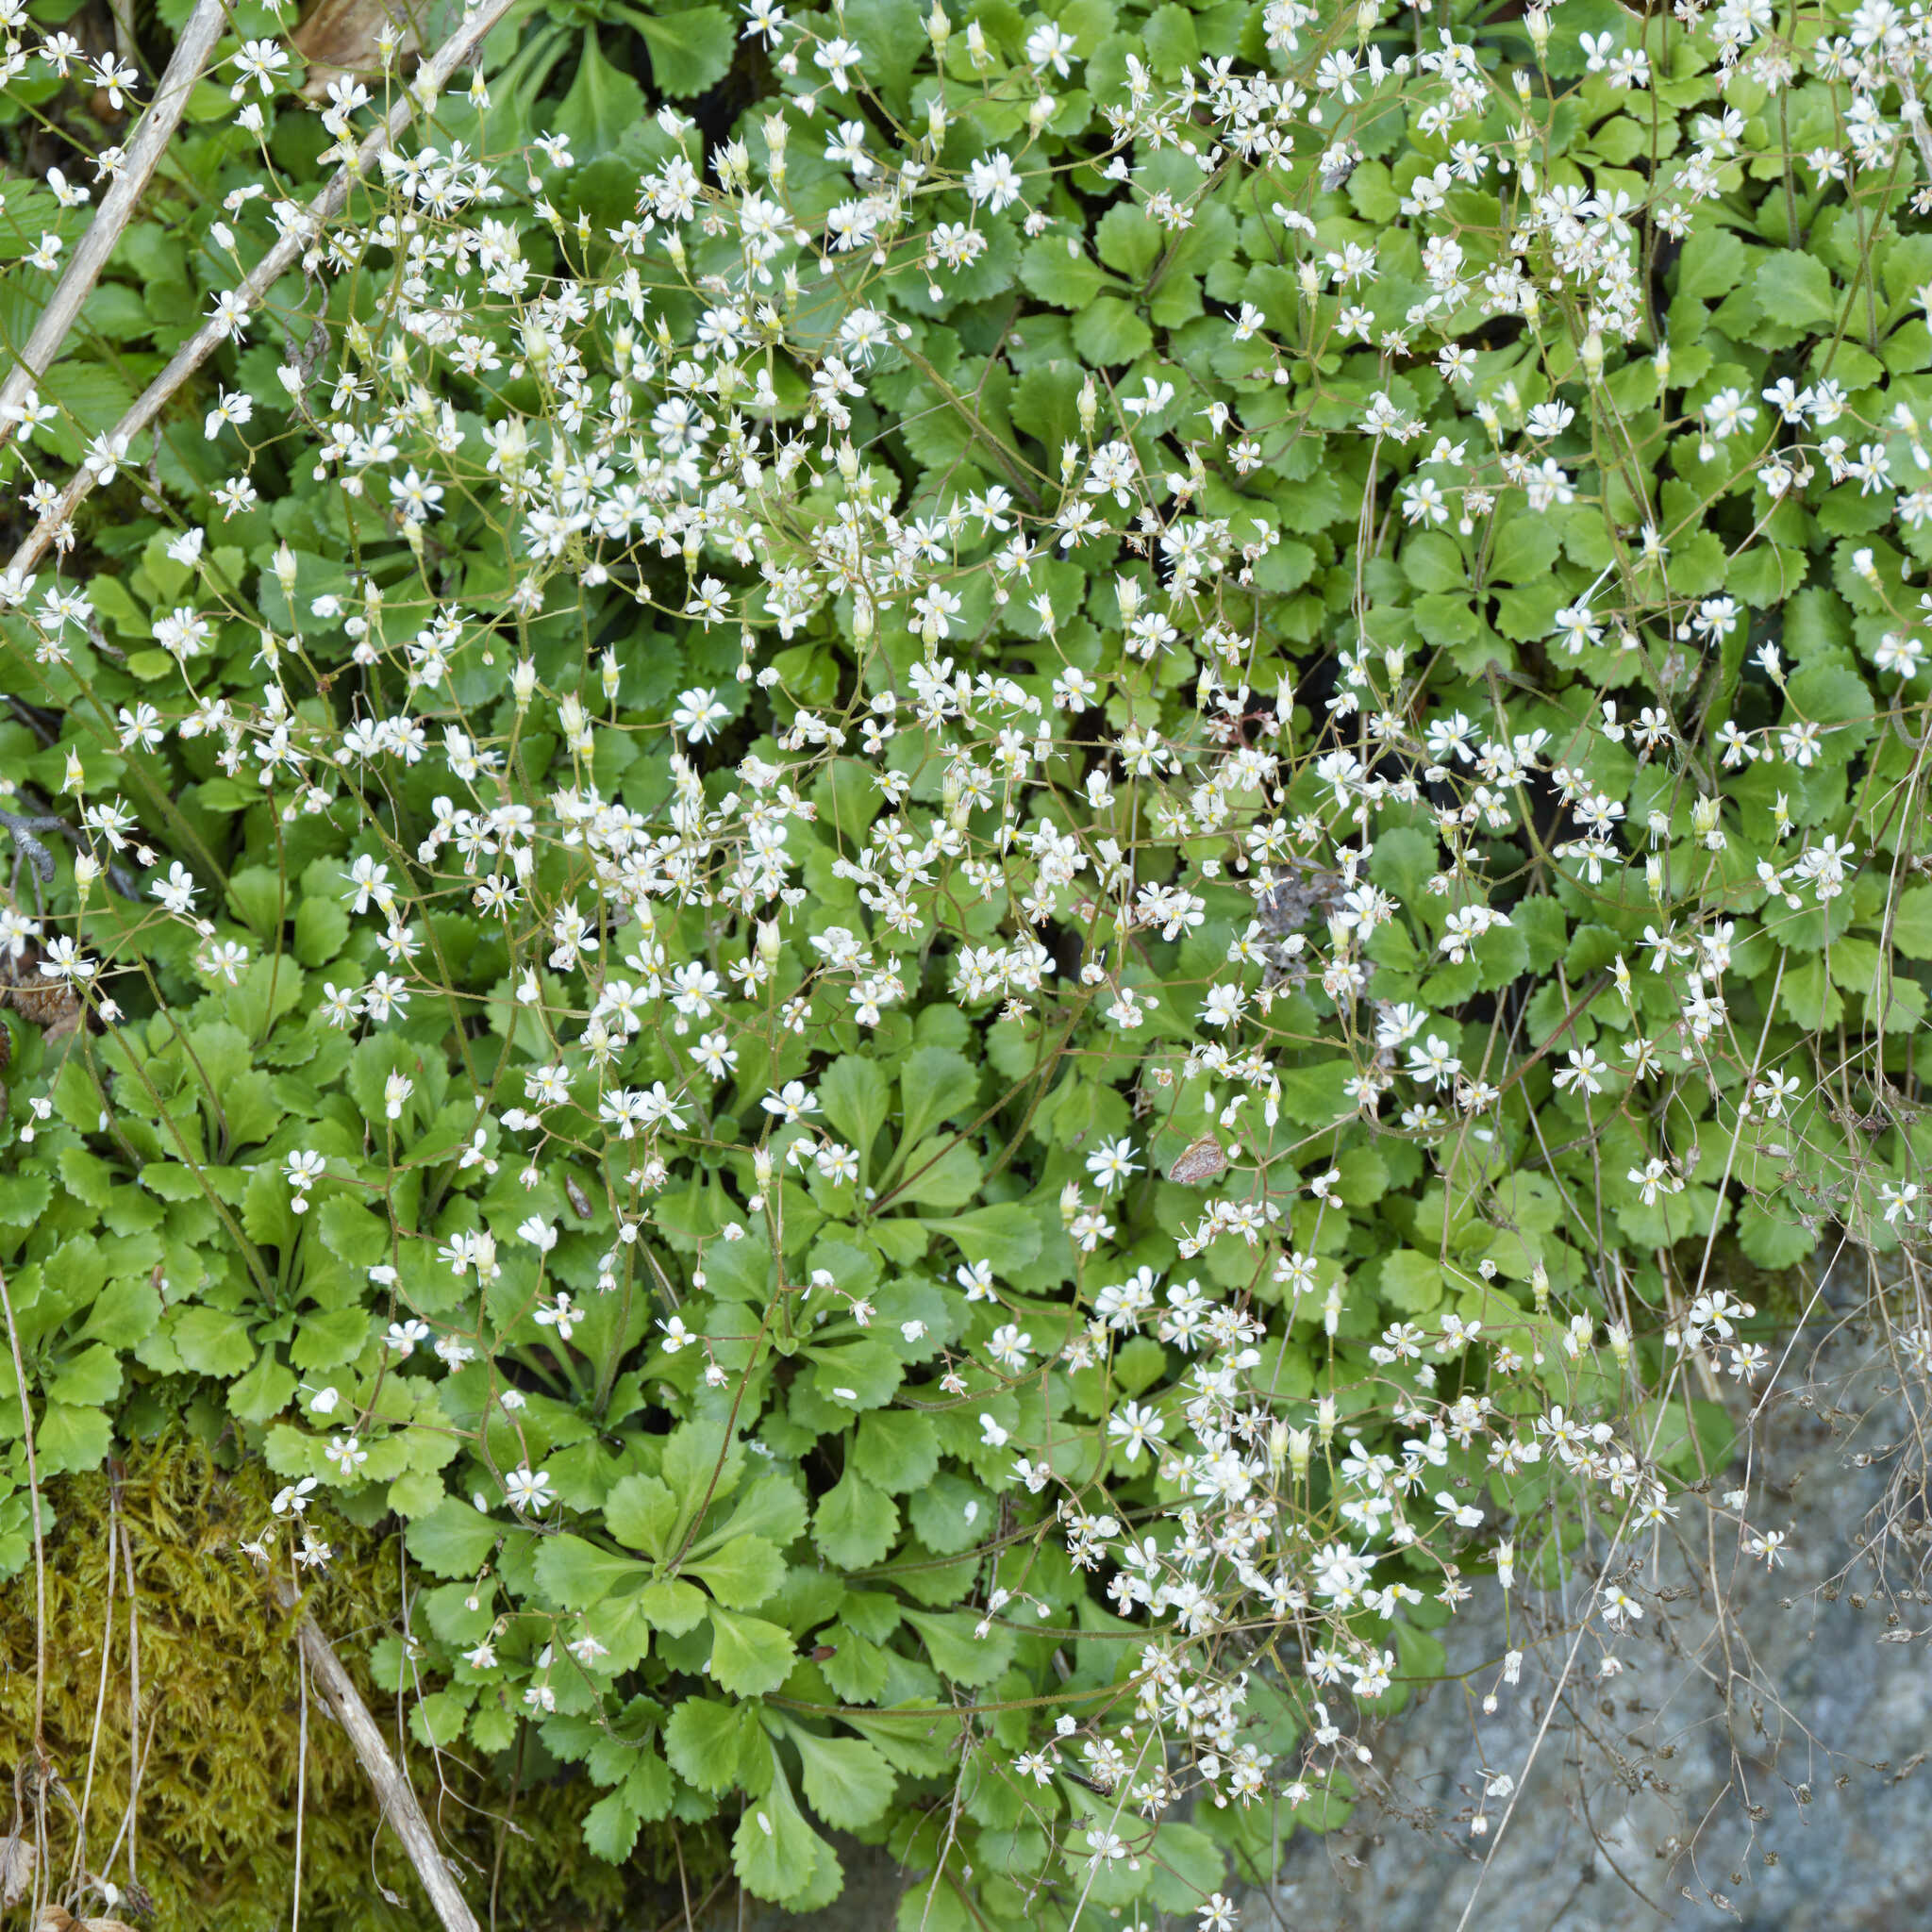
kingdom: Plantae
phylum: Tracheophyta
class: Magnoliopsida
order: Saxifragales
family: Saxifragaceae
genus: Saxifraga
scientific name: Saxifraga cuneifolia
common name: Lesser londonpride
